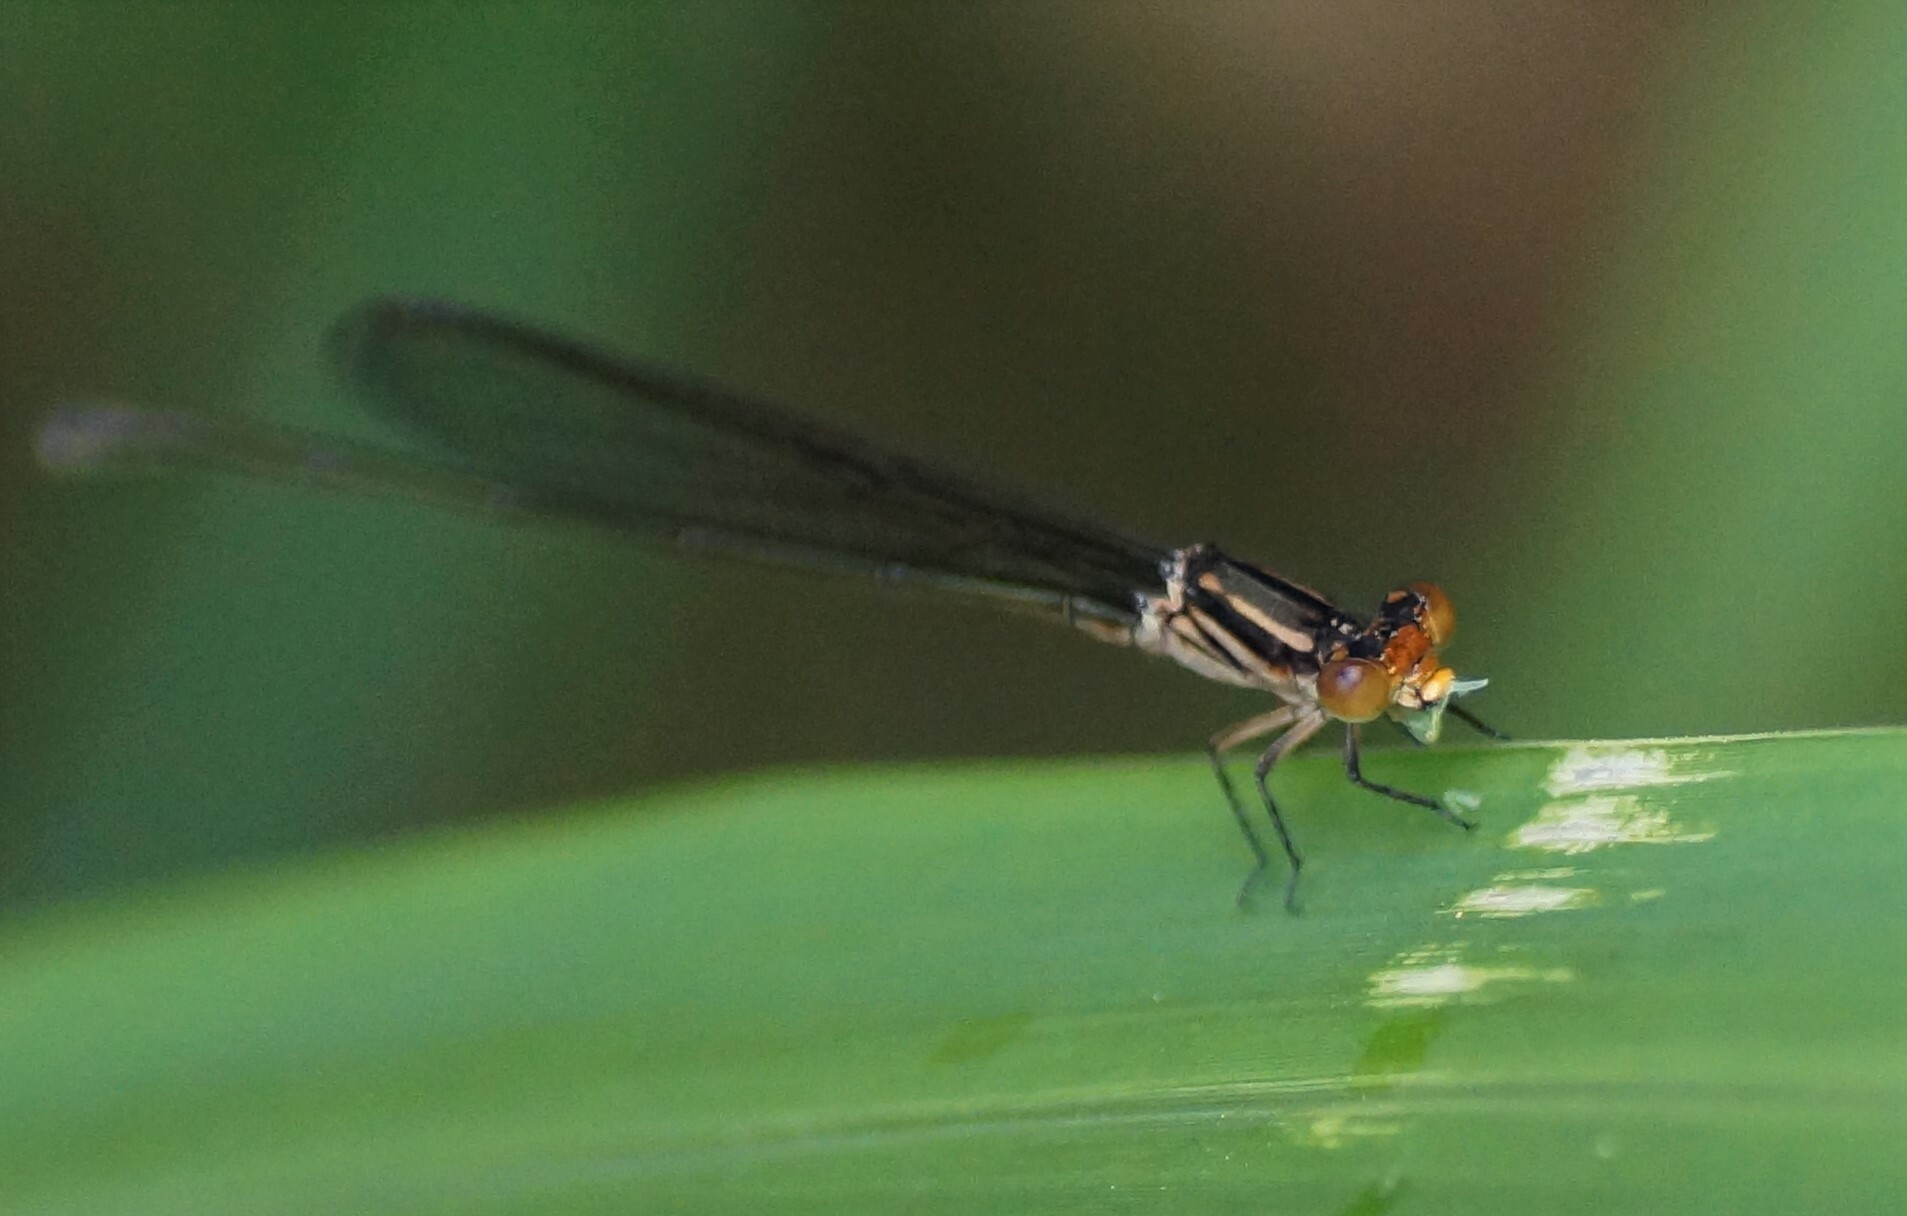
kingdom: Animalia
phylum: Arthropoda
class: Insecta
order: Odonata
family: Coenagrionidae
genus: Pseudagrion
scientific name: Pseudagrion ignifer
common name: Flame-headed riverdamsel
